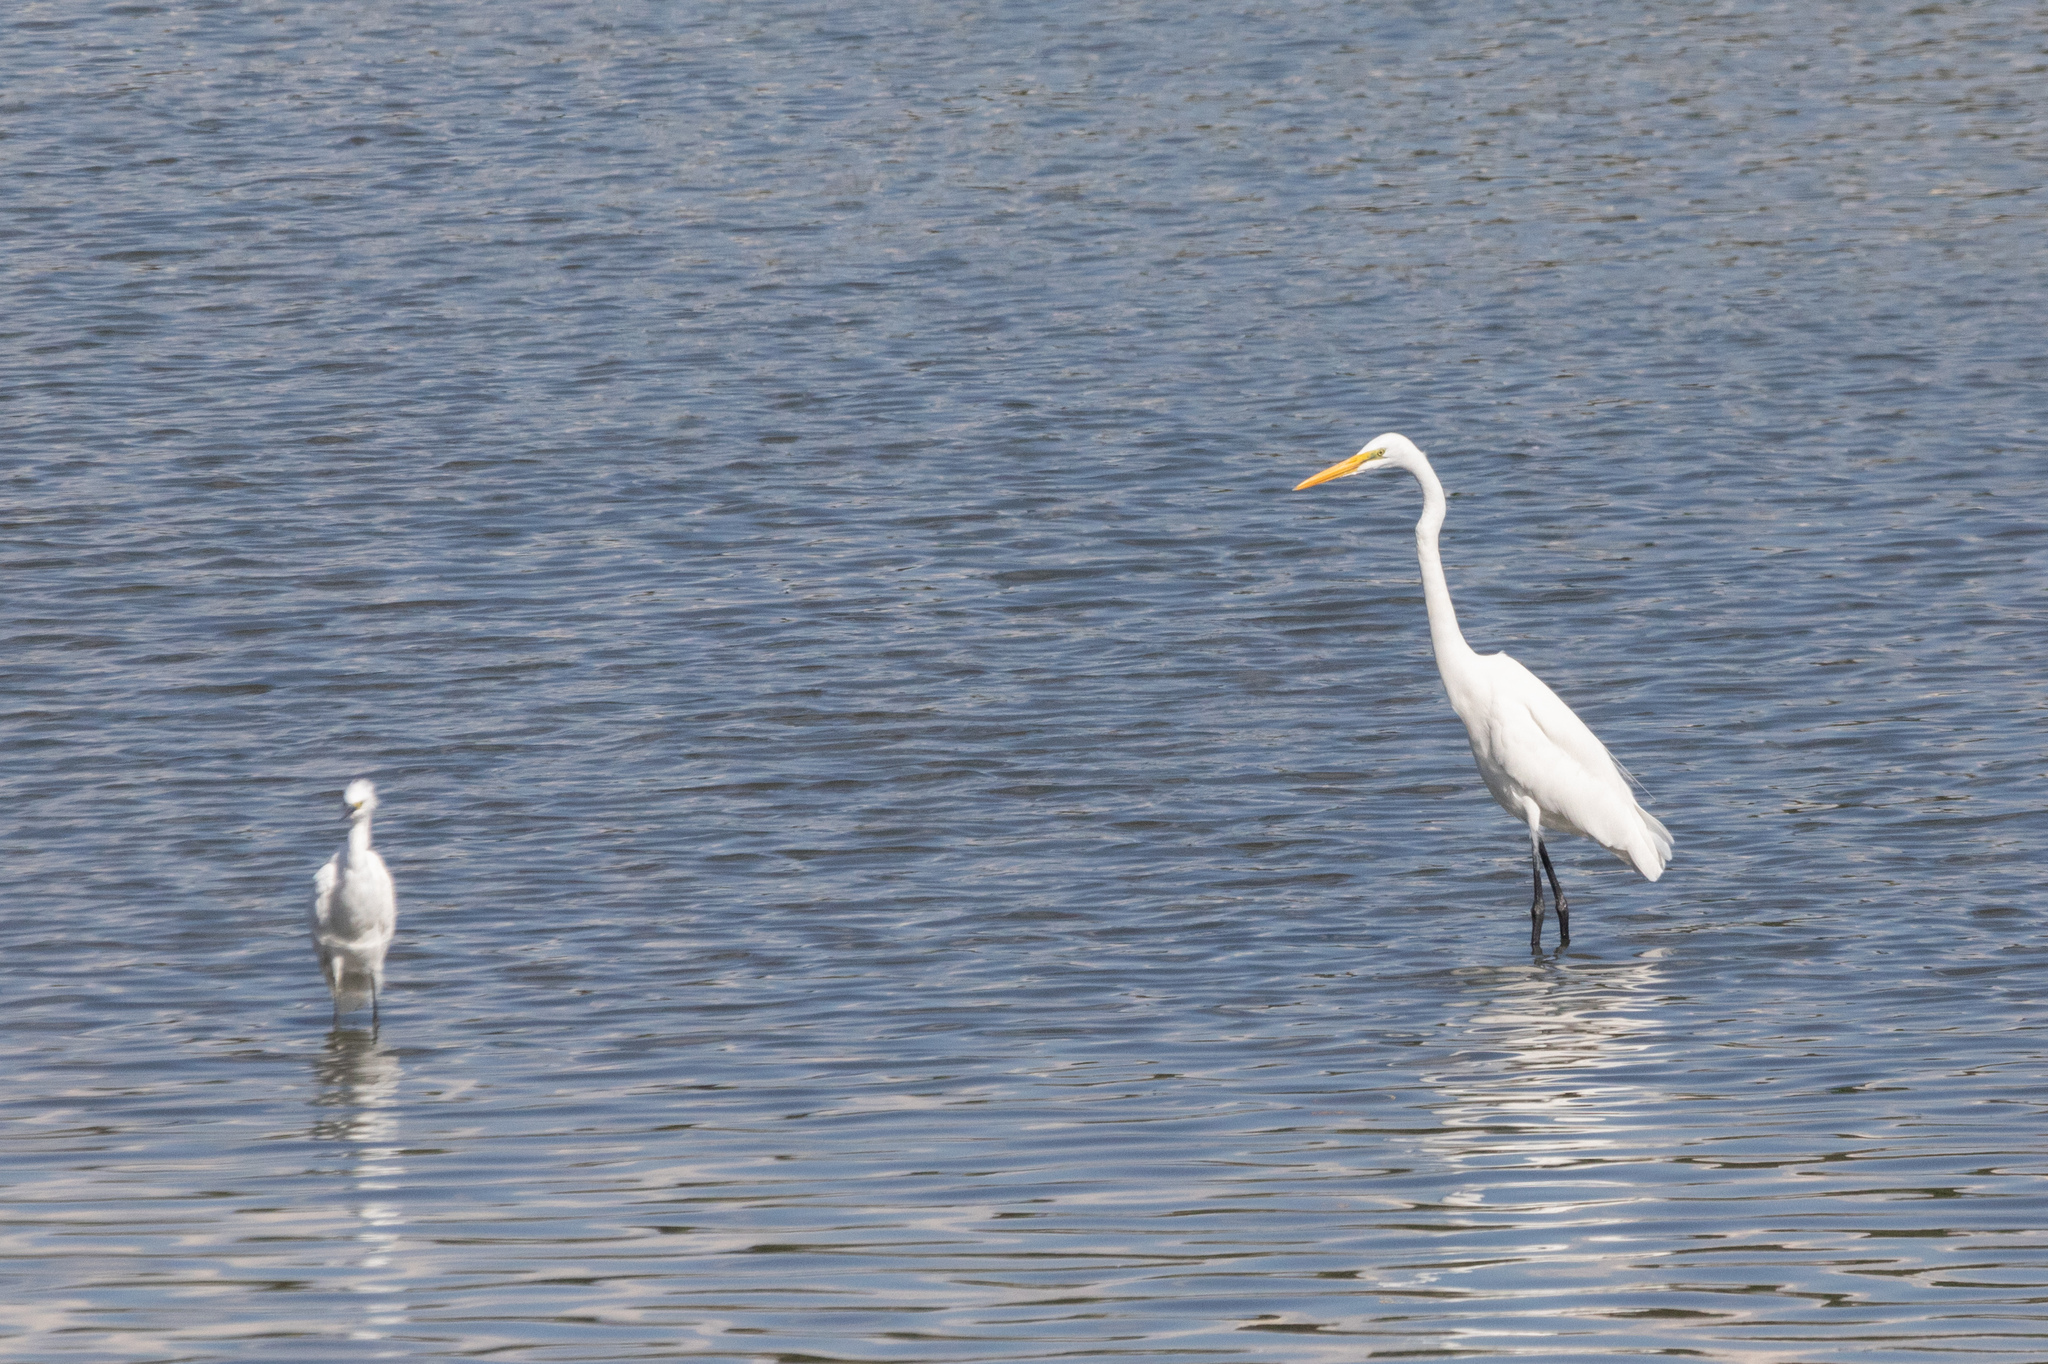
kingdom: Animalia
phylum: Chordata
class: Aves
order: Pelecaniformes
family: Ardeidae
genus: Ardea
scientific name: Ardea alba
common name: Great egret
